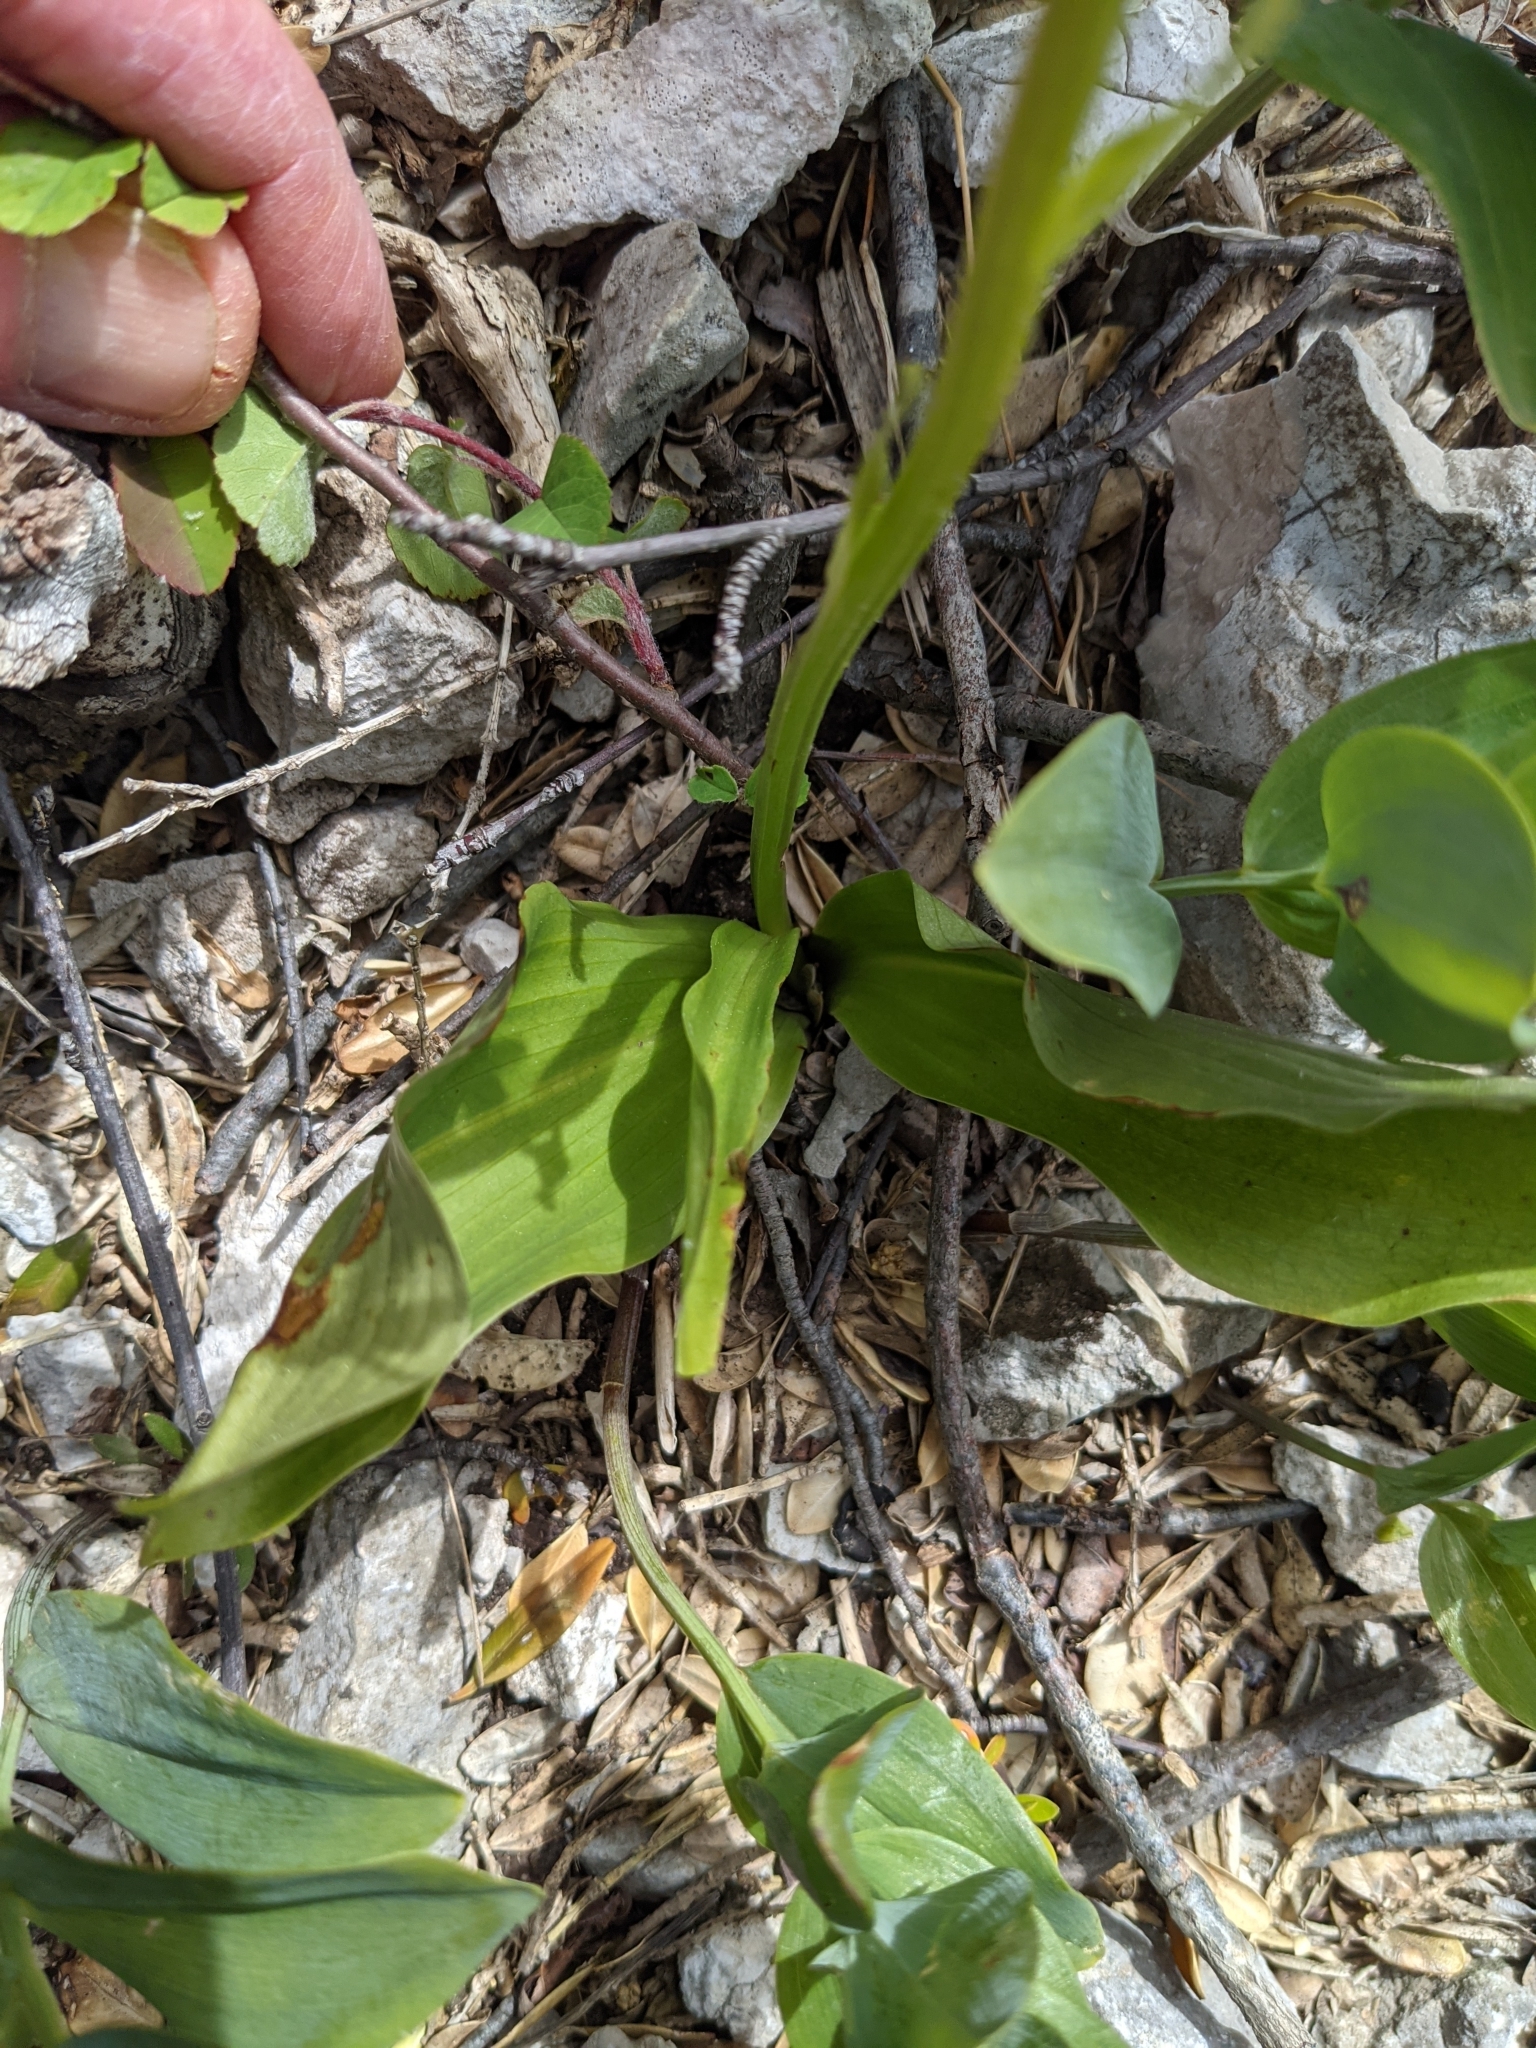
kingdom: Plantae
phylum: Tracheophyta
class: Liliopsida
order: Asparagales
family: Orchidaceae
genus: Platanthera
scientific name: Platanthera chlorantha
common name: Greater butterfly-orchid
